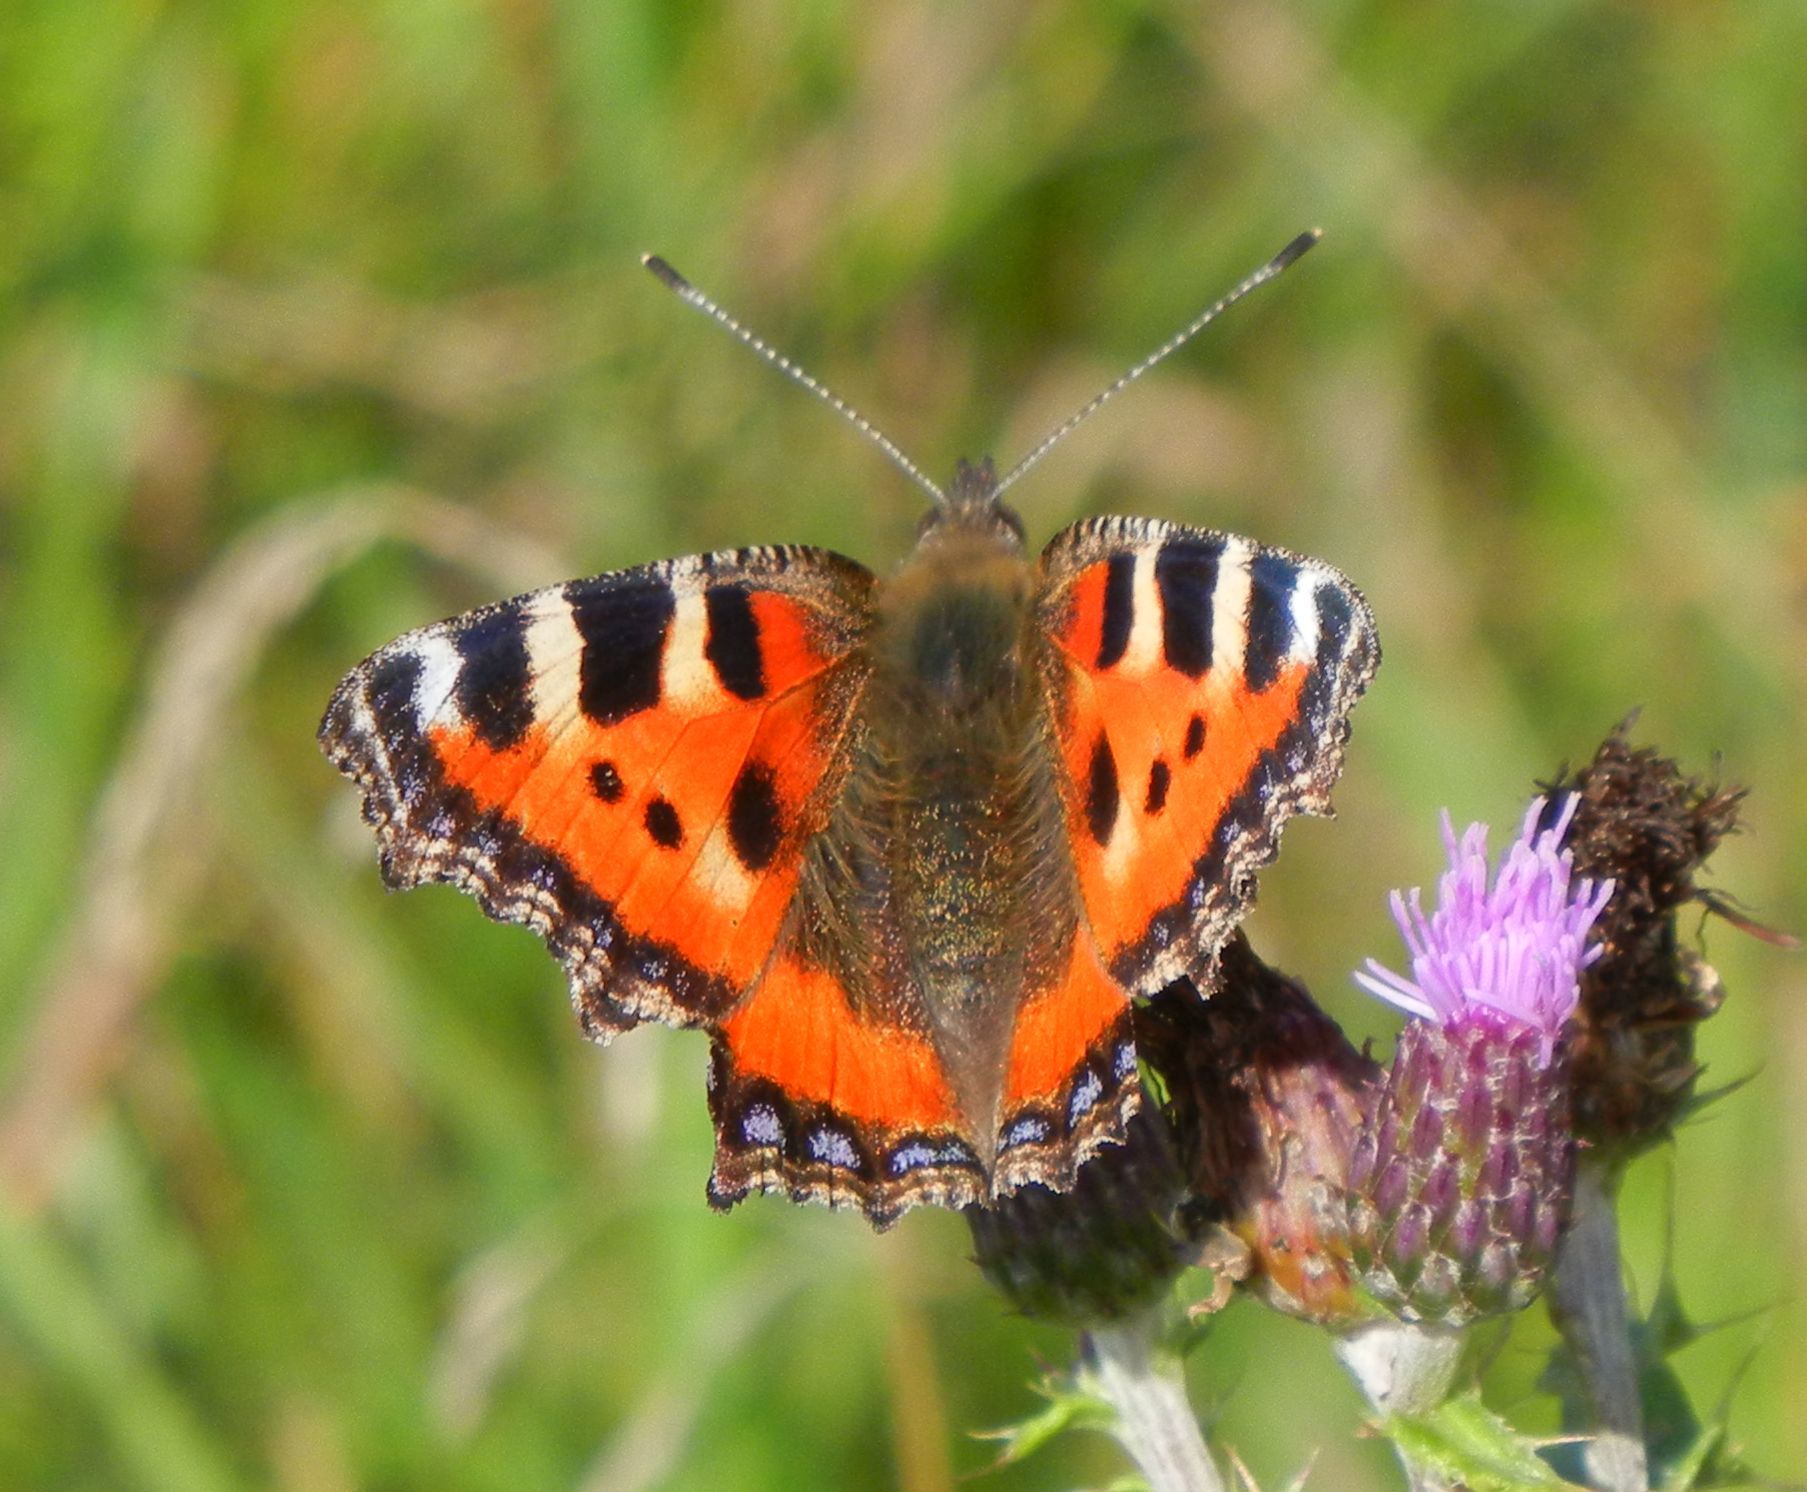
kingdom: Animalia
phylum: Arthropoda
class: Insecta
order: Lepidoptera
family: Nymphalidae
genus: Aglais
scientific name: Aglais urticae
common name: Small tortoiseshell
